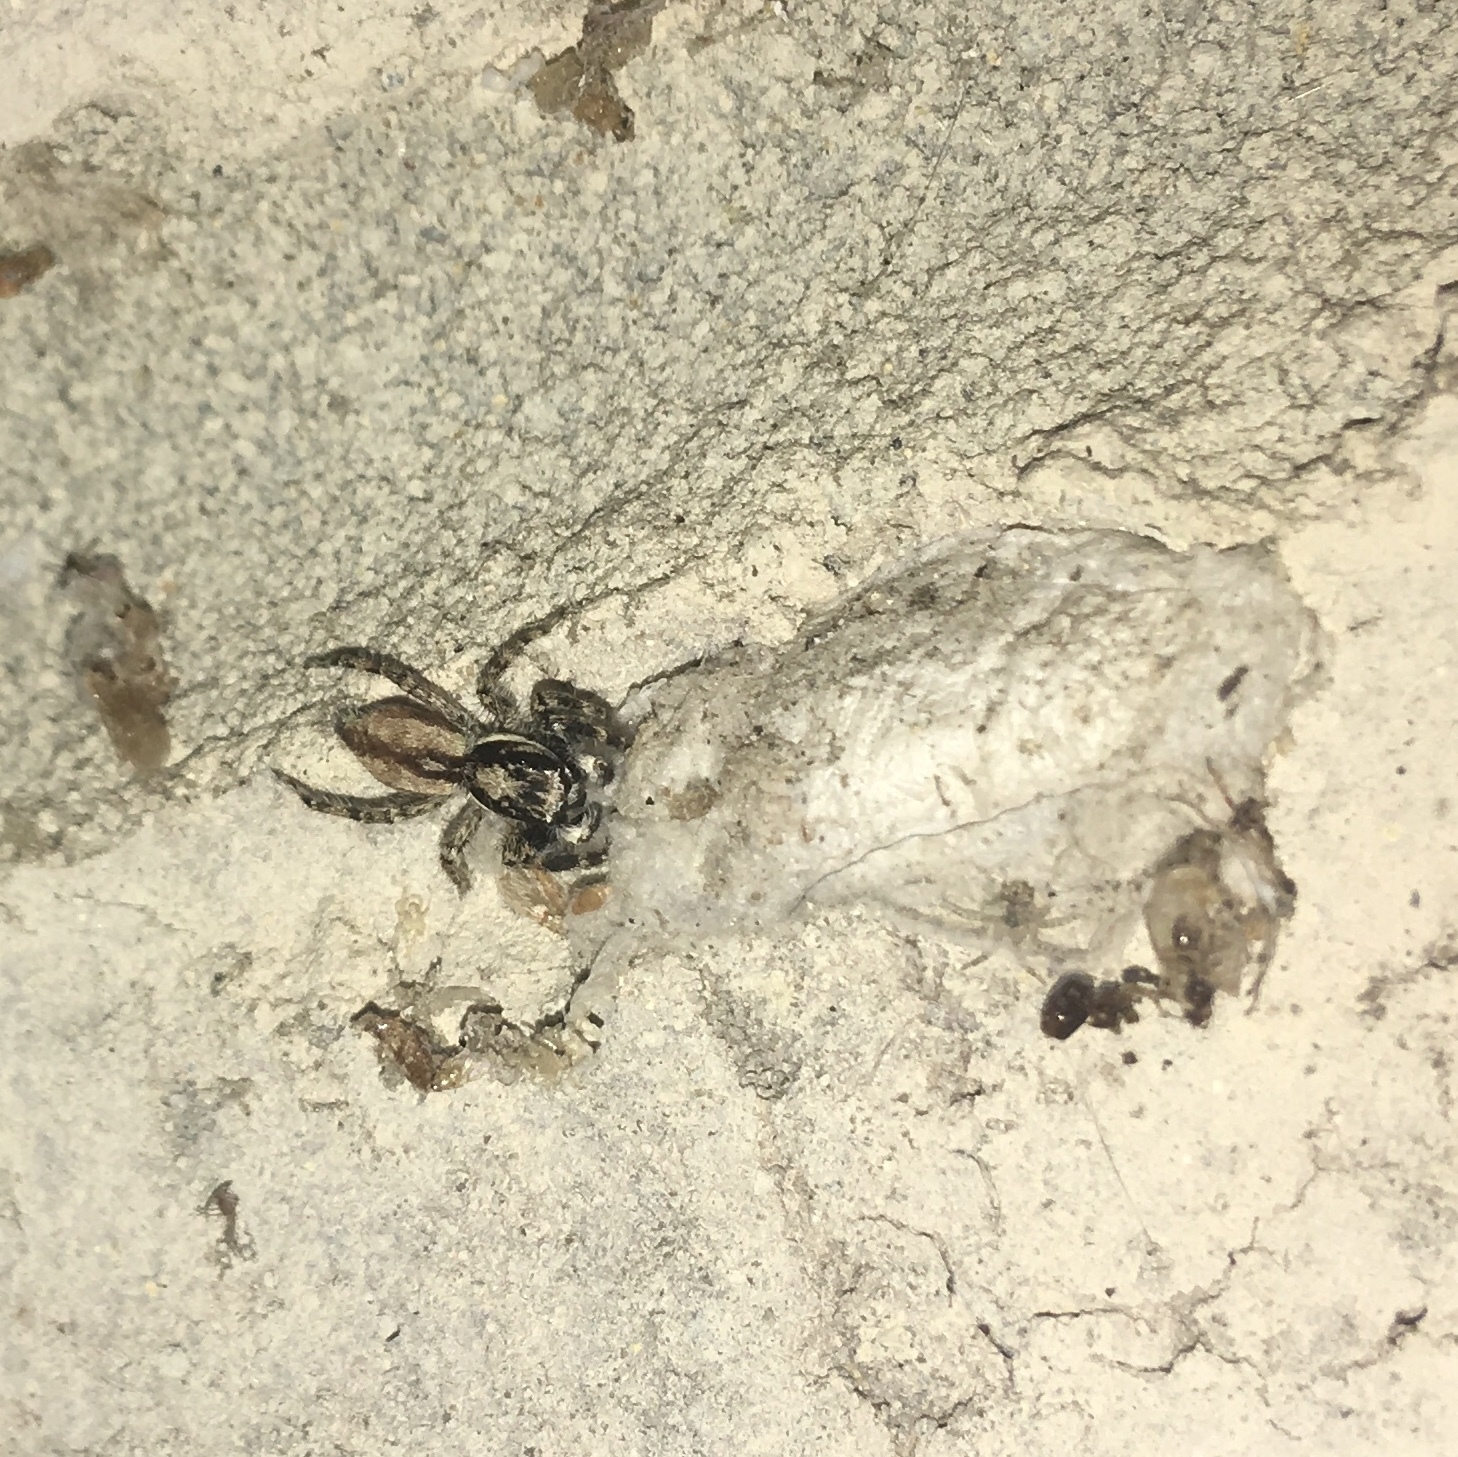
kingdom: Animalia
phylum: Arthropoda
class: Arachnida
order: Araneae
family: Salticidae
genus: Menemerus
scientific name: Menemerus bivittatus
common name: Gray wall jumper
